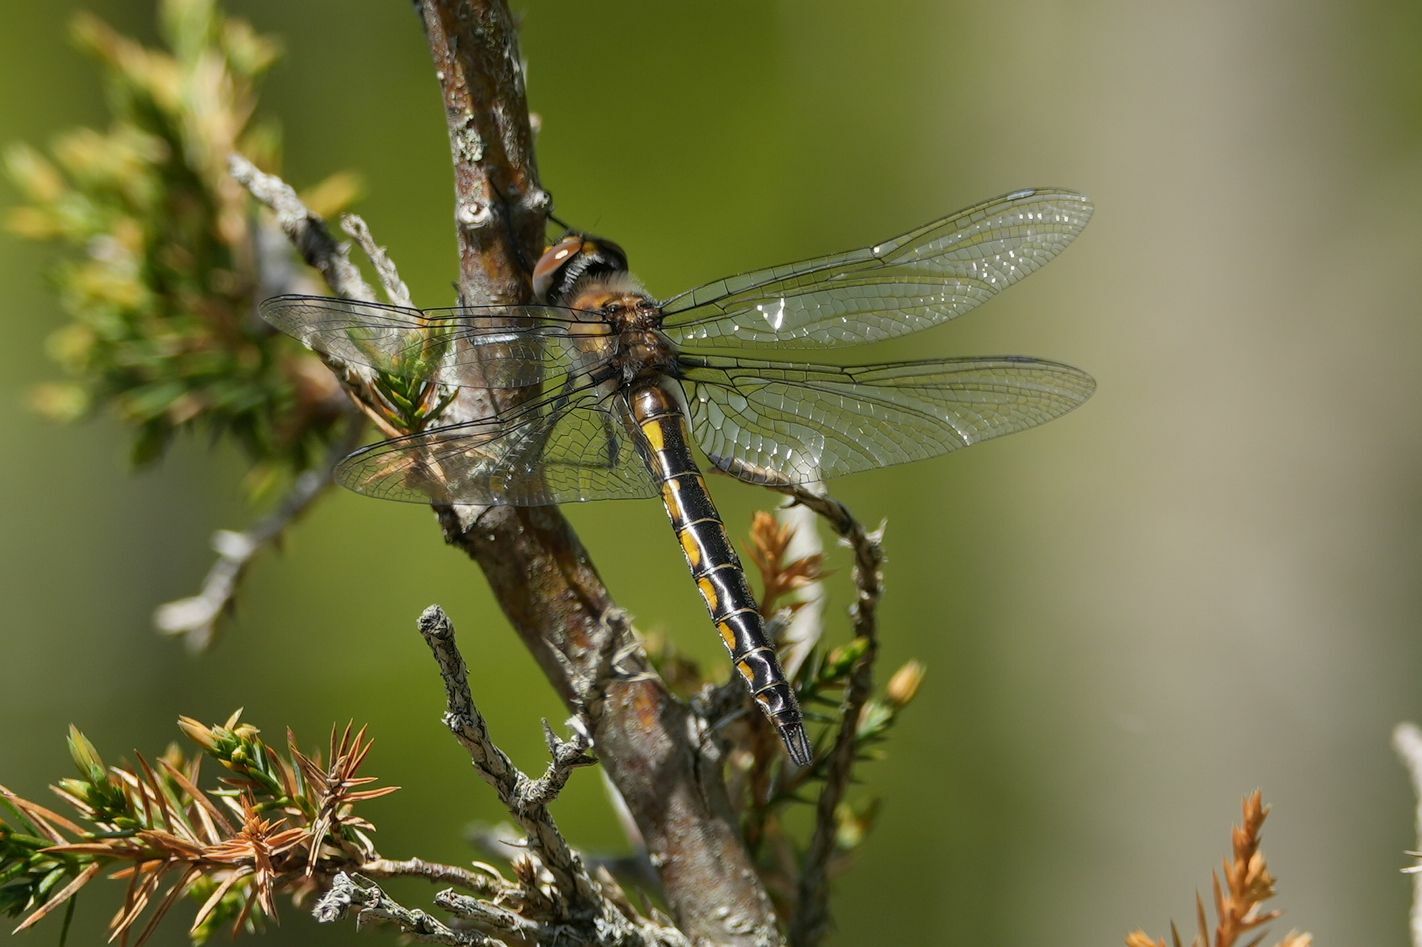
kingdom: Animalia
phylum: Arthropoda
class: Insecta
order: Odonata
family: Corduliidae
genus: Epitheca
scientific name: Epitheca spinigera
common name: Spiny baskettail
